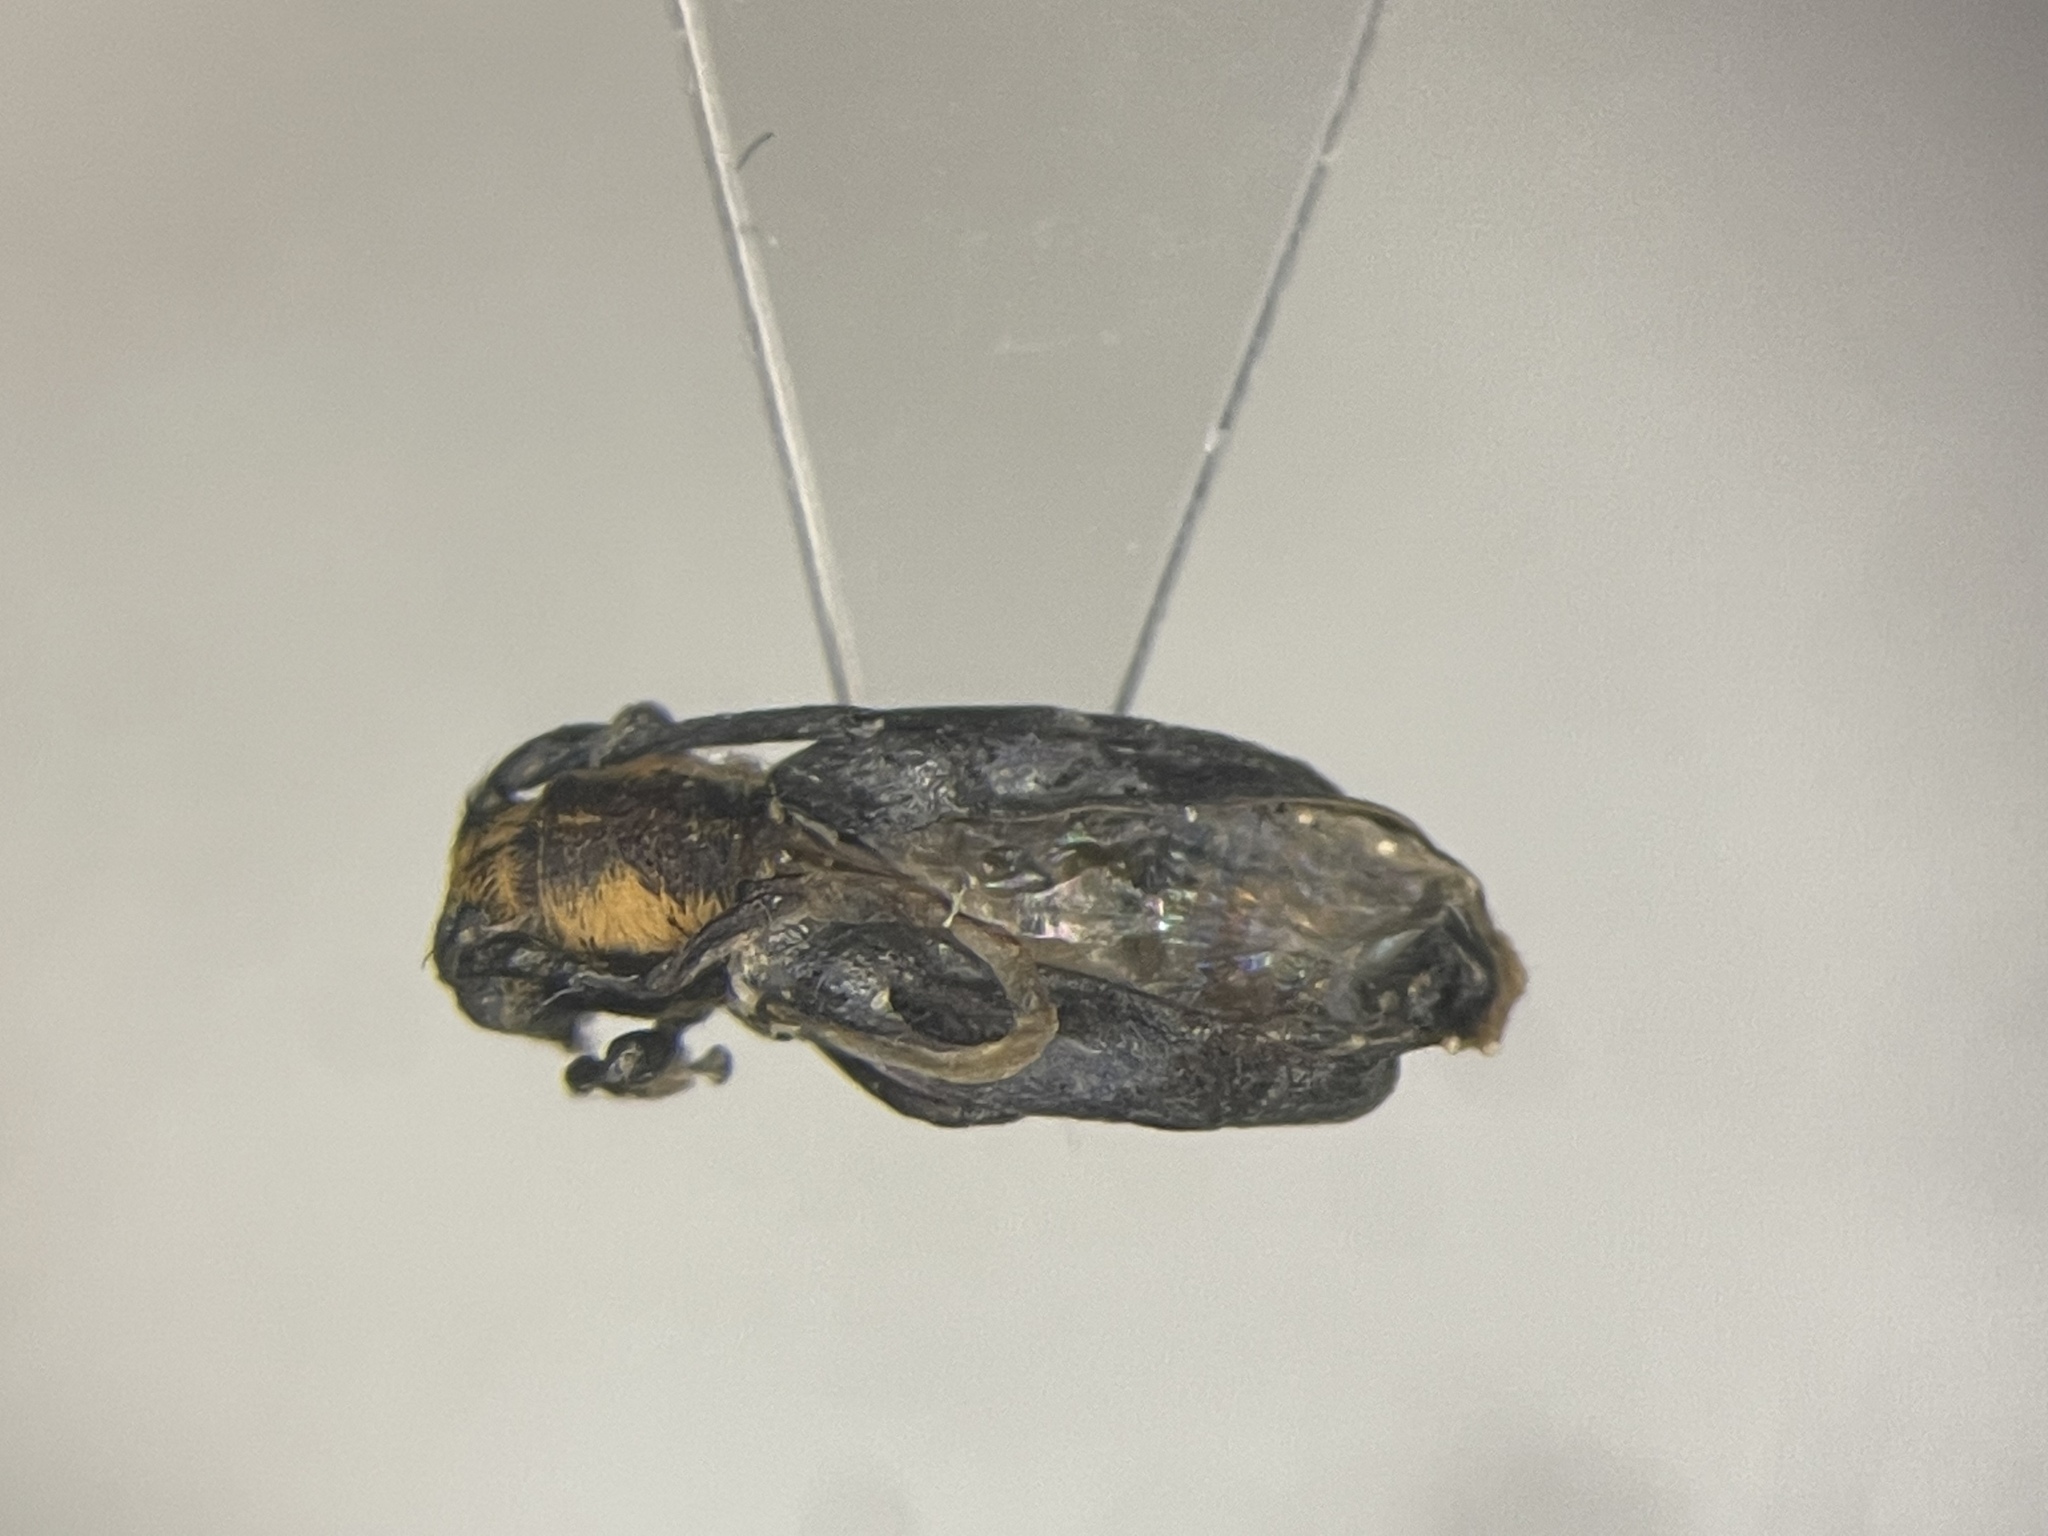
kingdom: Animalia
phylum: Arthropoda
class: Insecta
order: Coleoptera
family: Cerambycidae
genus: Eupogonius
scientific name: Eupogonius subarmatus
